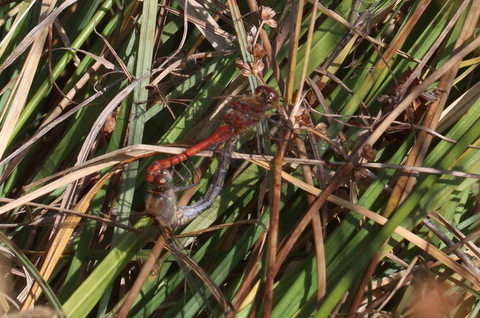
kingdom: Animalia
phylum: Arthropoda
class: Insecta
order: Odonata
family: Libellulidae
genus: Sympetrum
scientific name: Sympetrum striolatum
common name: Common darter
